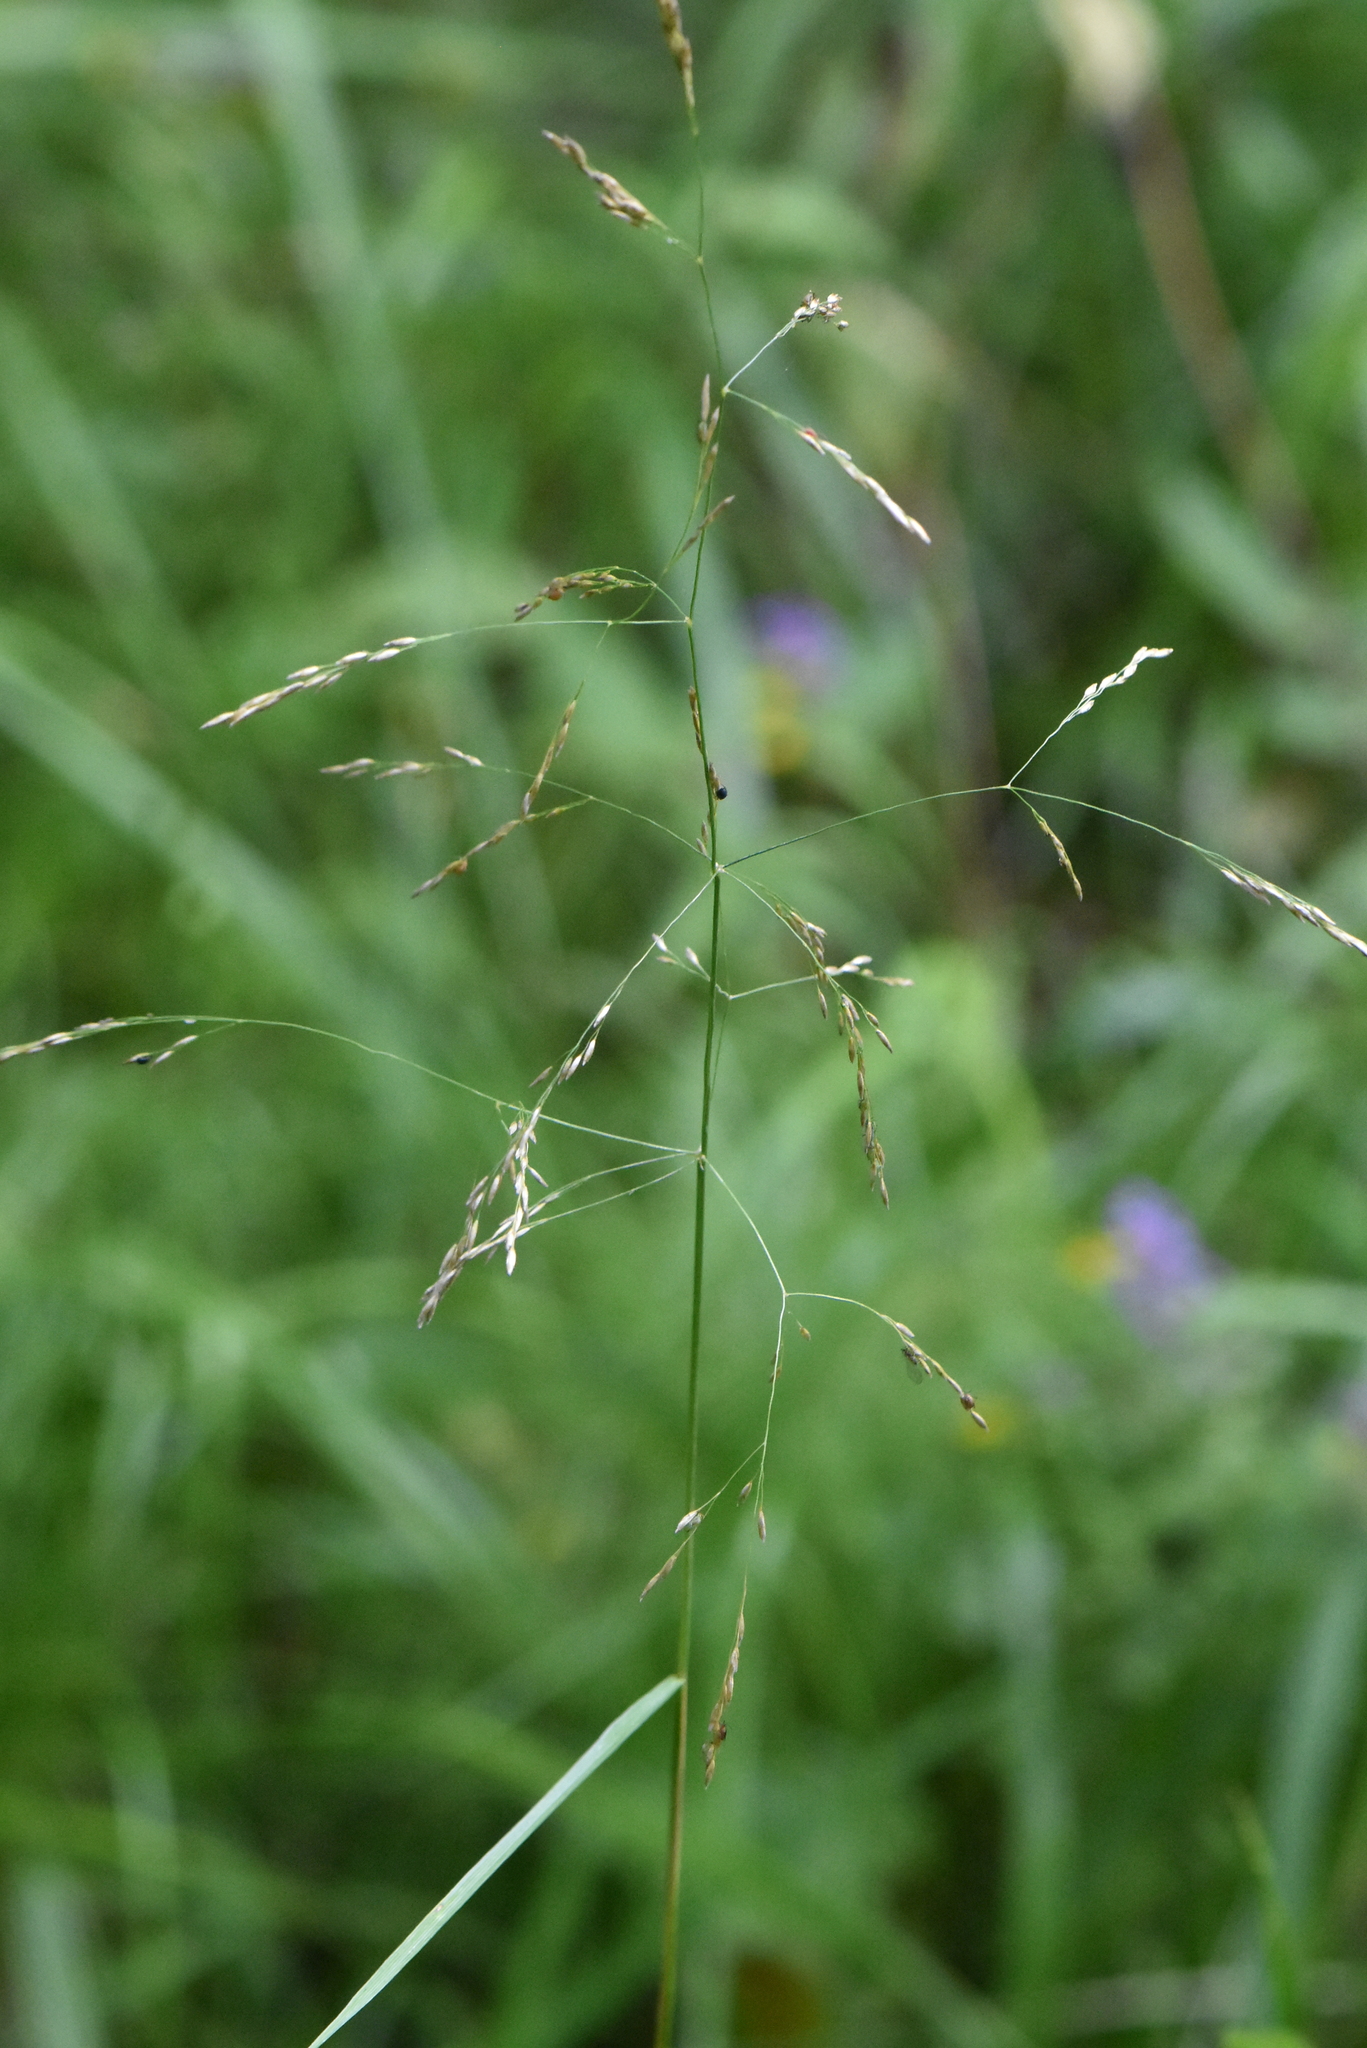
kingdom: Plantae
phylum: Tracheophyta
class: Liliopsida
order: Poales
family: Poaceae
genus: Deschampsia
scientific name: Deschampsia cespitosa
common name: Tufted hair-grass
